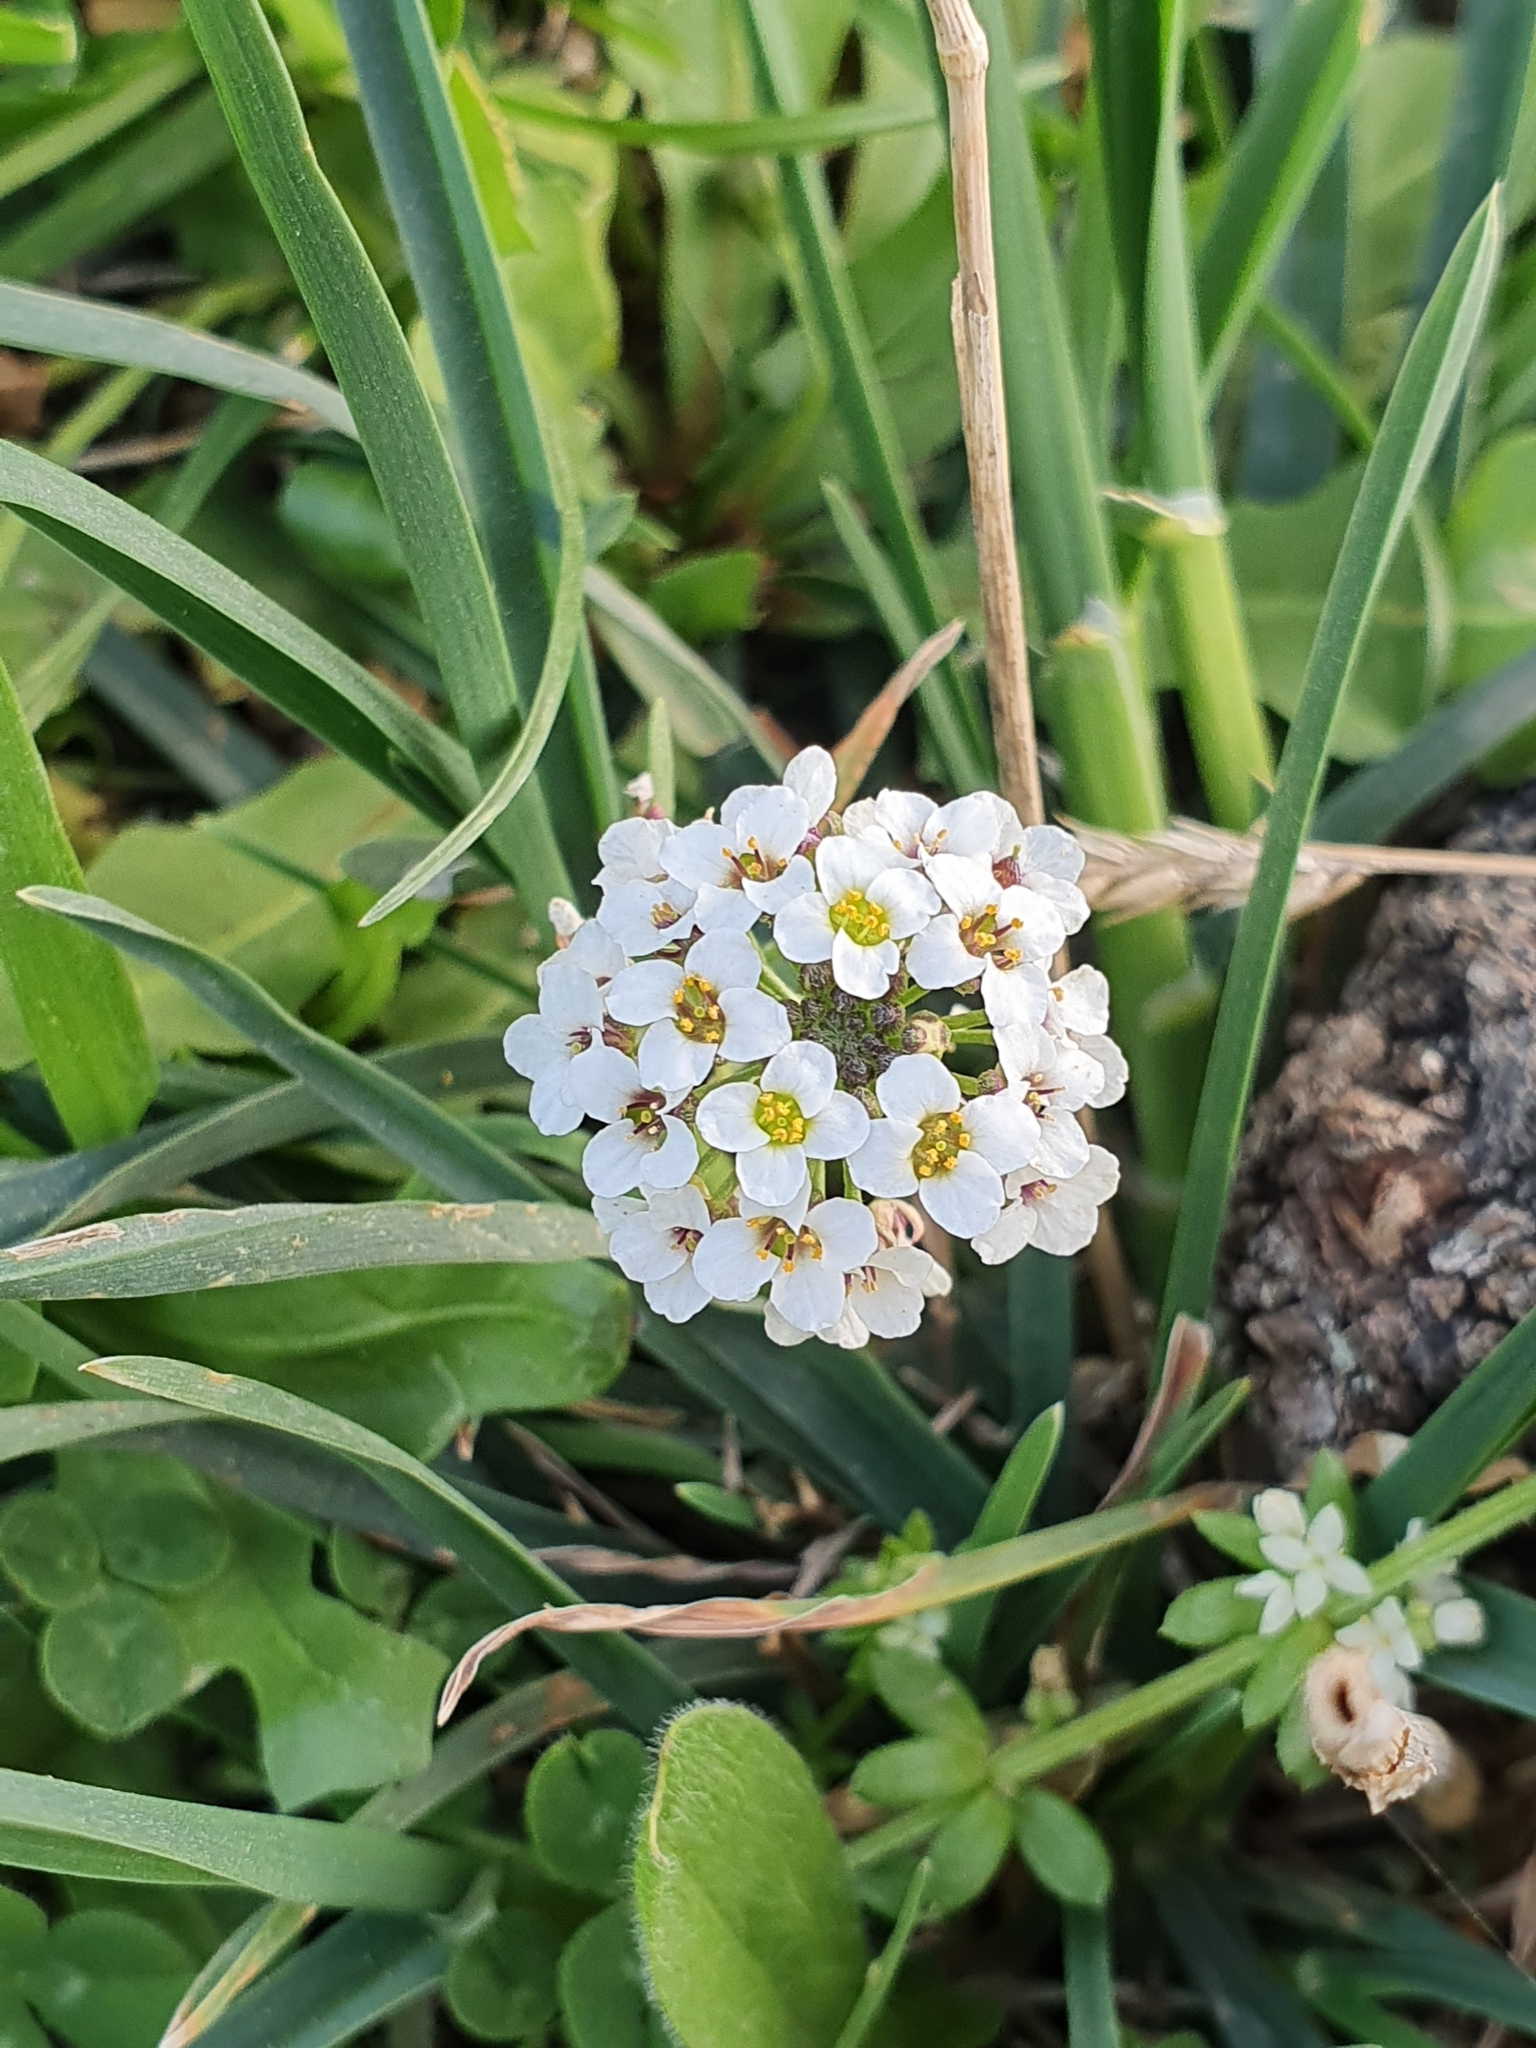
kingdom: Plantae
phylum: Tracheophyta
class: Magnoliopsida
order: Brassicales
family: Brassicaceae
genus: Lobularia
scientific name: Lobularia maritima
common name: Sweet alison
